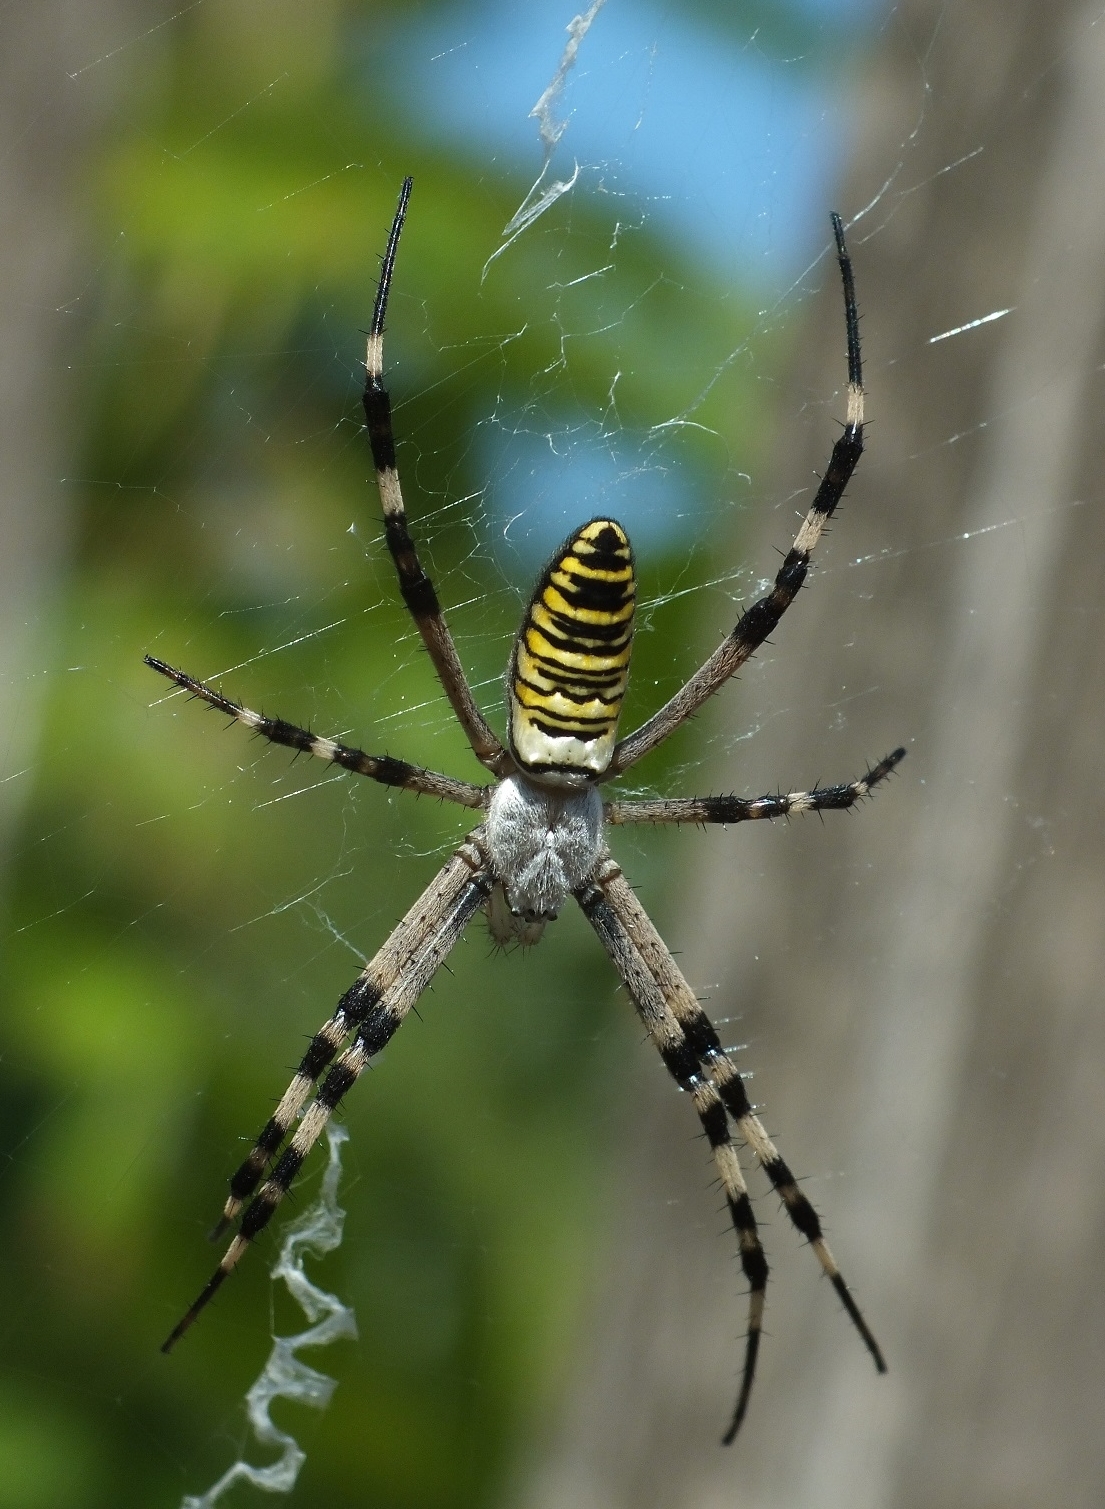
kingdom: Animalia
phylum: Arthropoda
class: Arachnida
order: Araneae
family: Araneidae
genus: Argiope
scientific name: Argiope bruennichi
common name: Wasp spider
